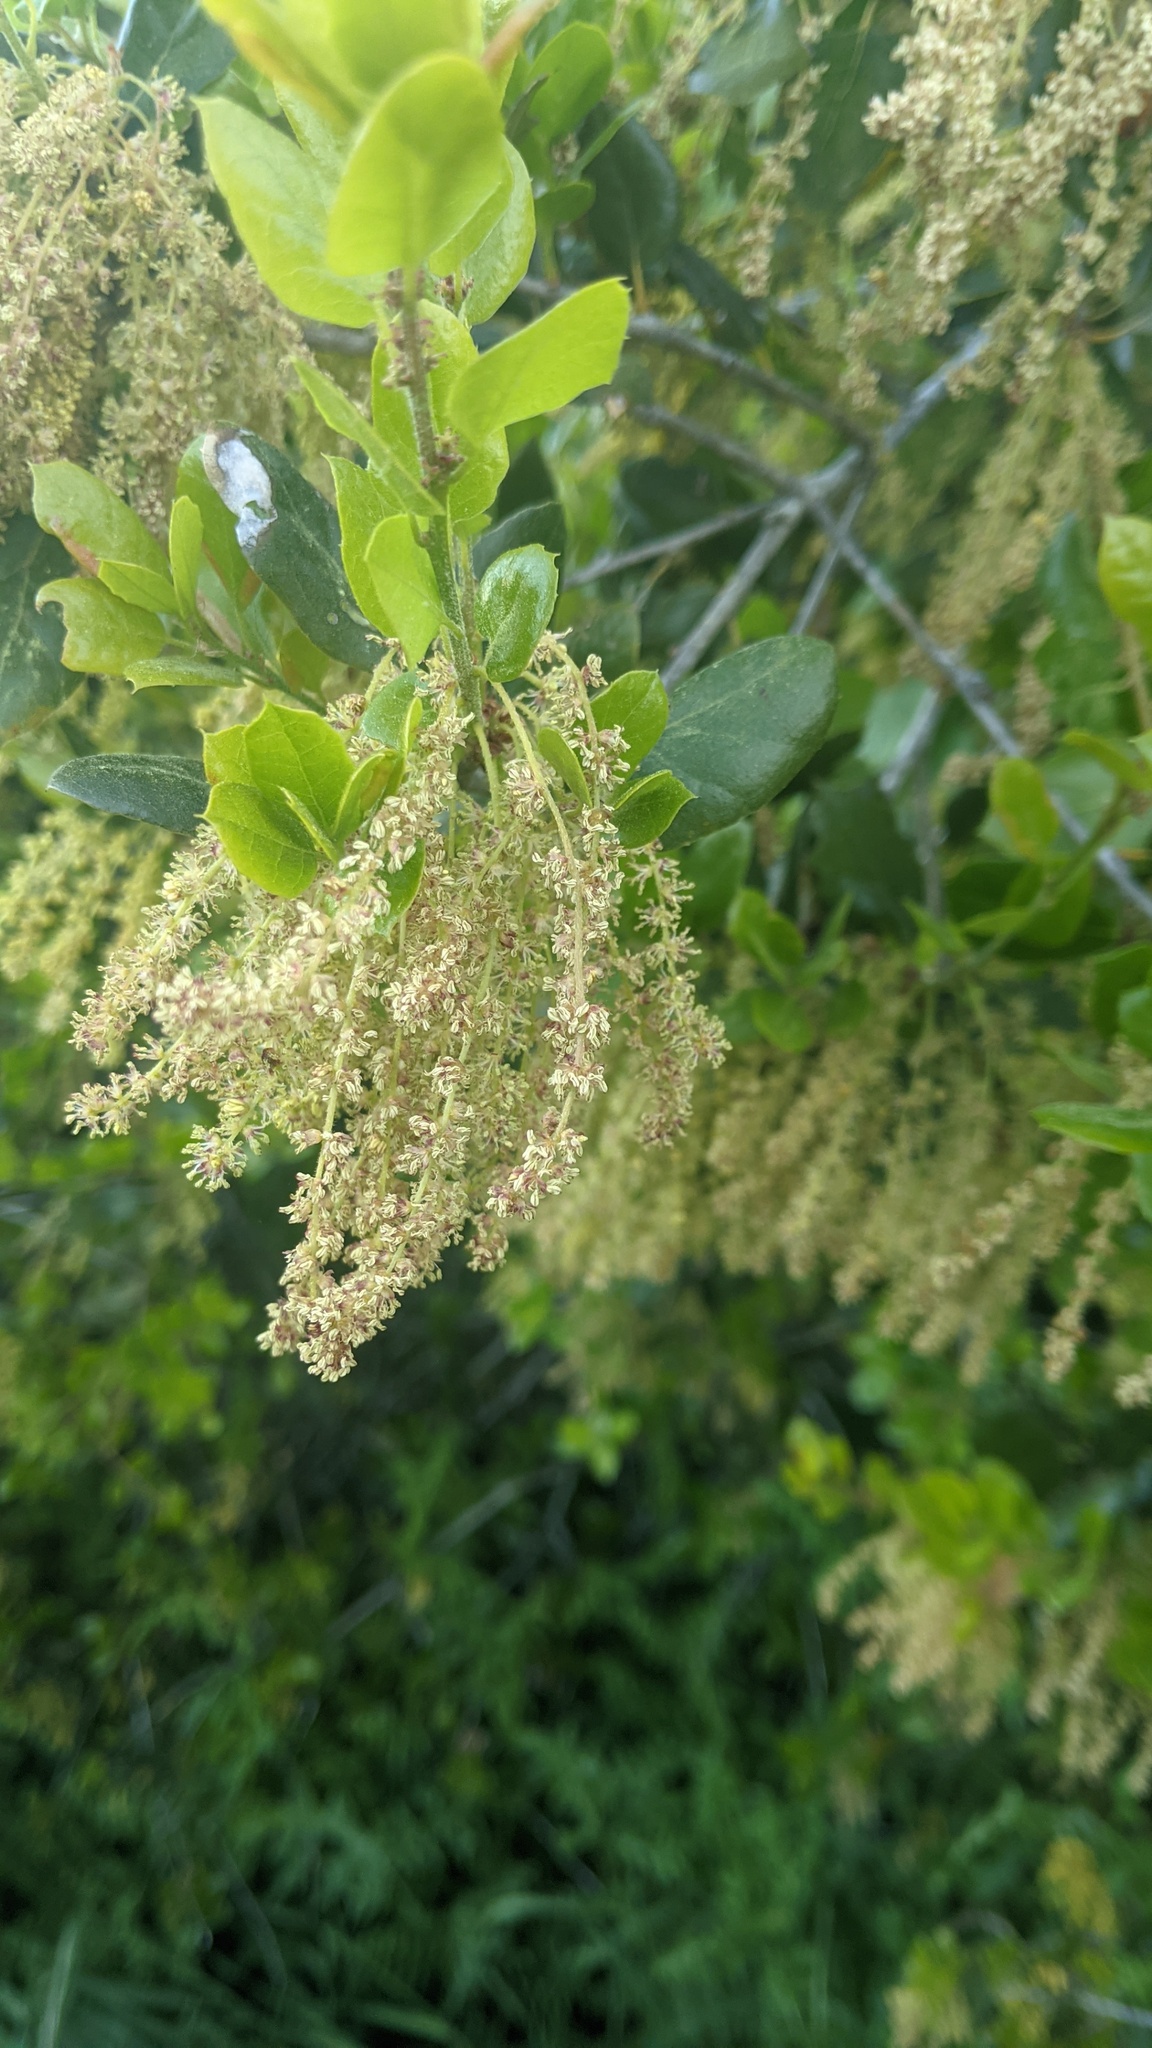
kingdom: Plantae
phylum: Tracheophyta
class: Magnoliopsida
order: Fagales
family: Fagaceae
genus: Quercus
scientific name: Quercus agrifolia
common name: California live oak
